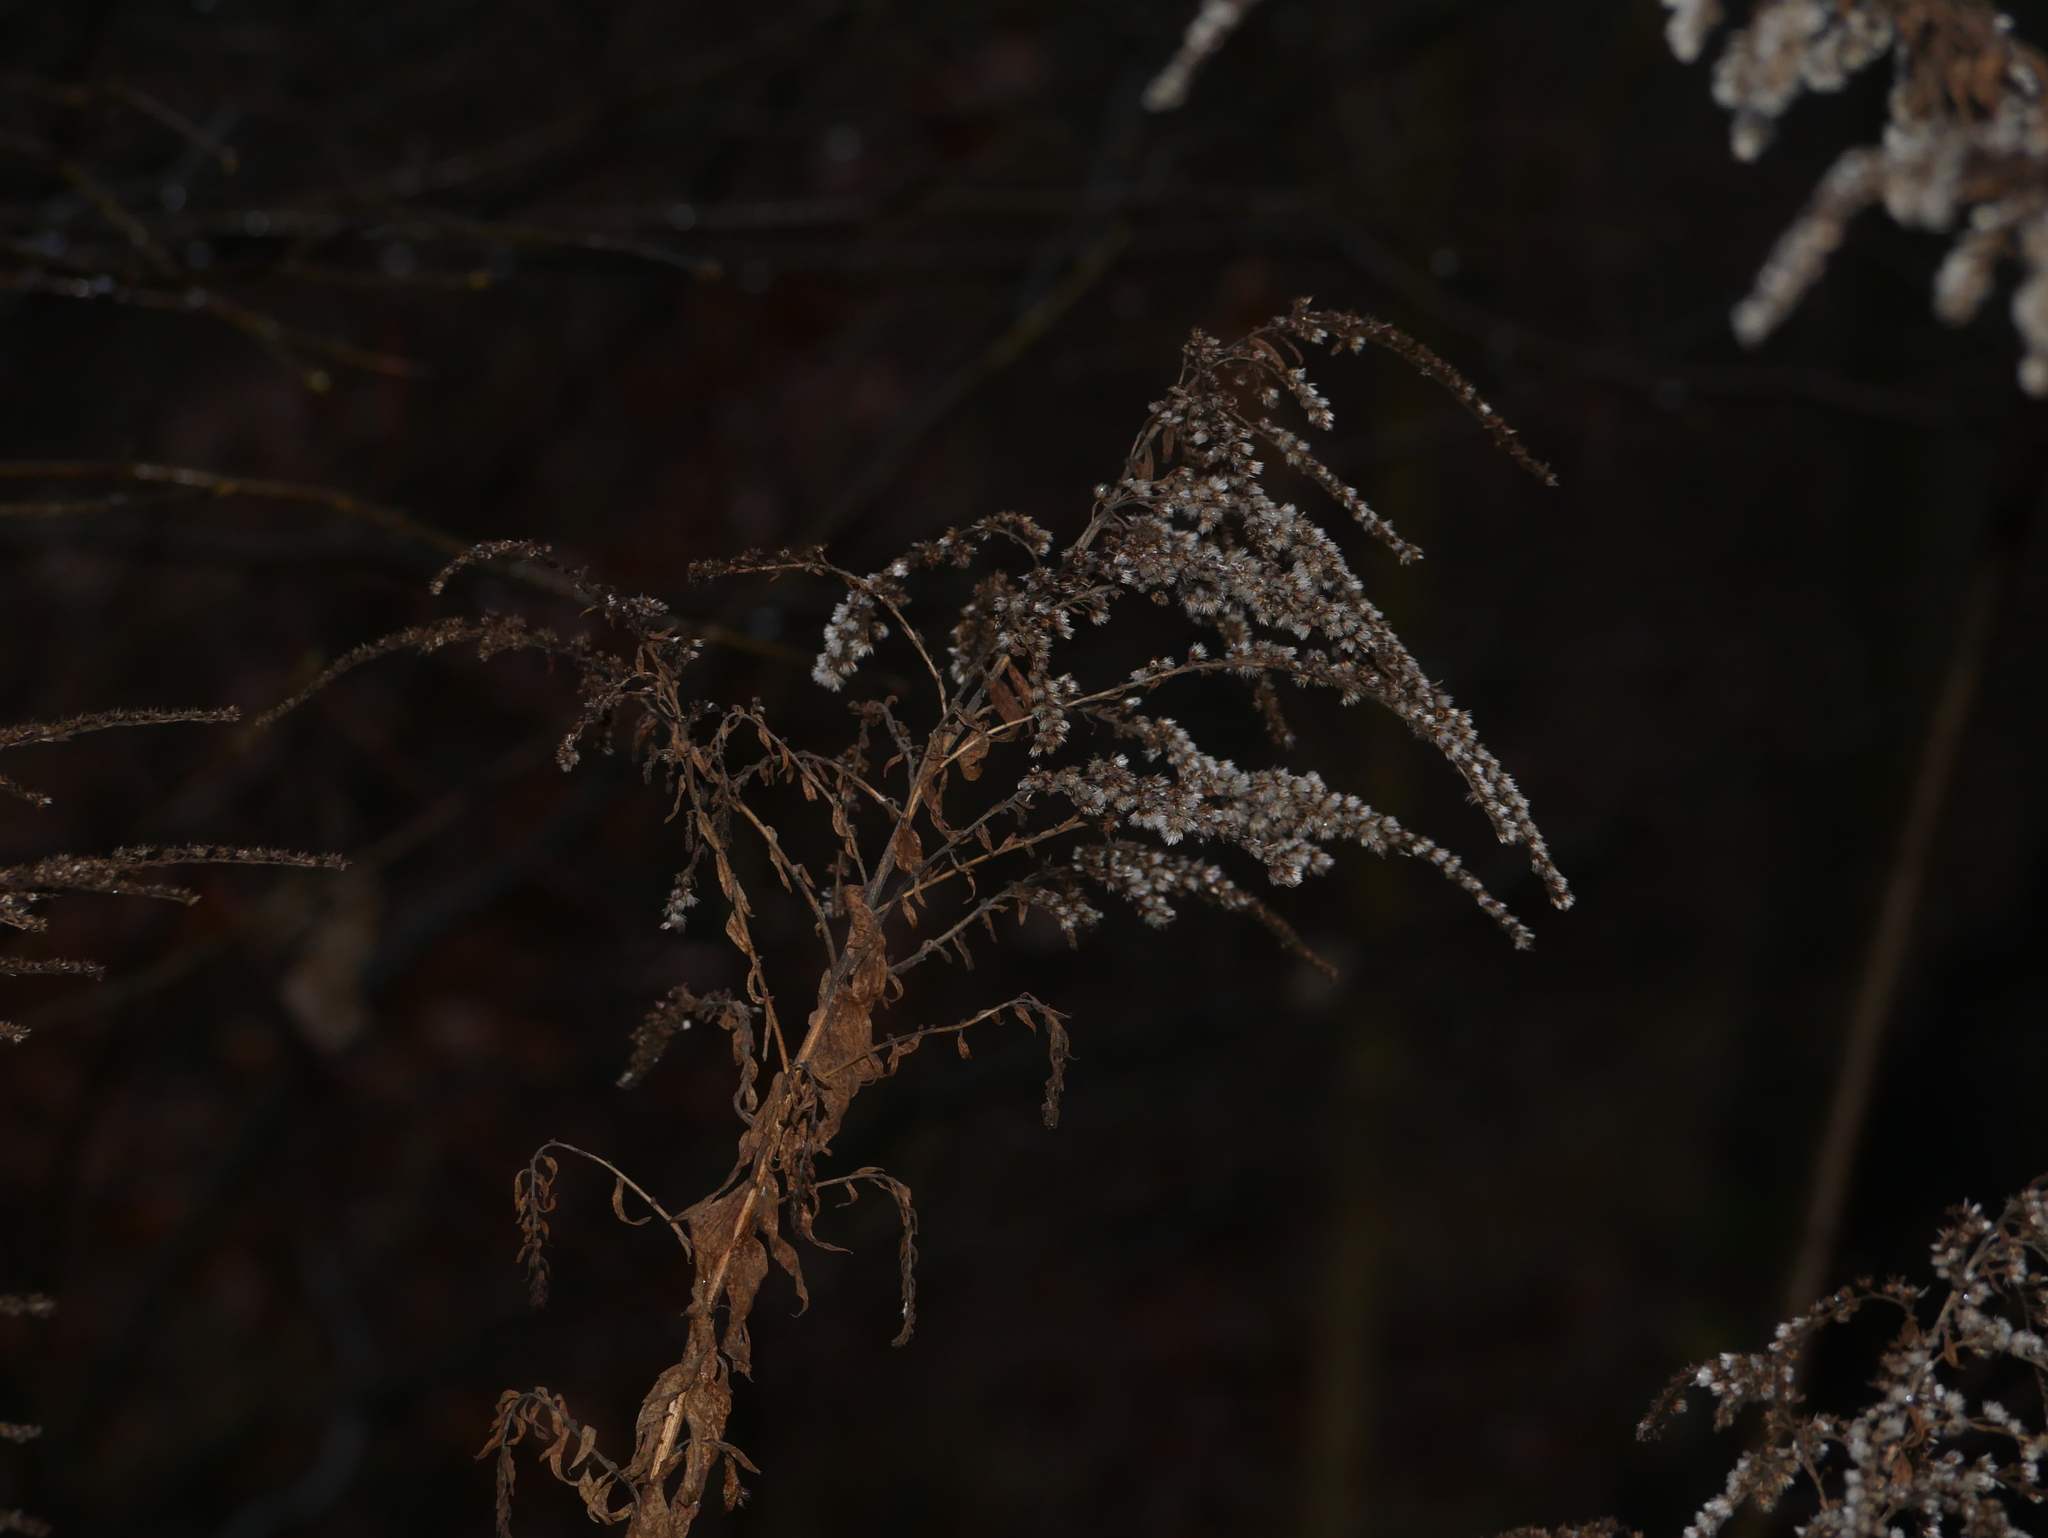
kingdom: Plantae
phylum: Tracheophyta
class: Magnoliopsida
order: Asterales
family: Asteraceae
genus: Solidago
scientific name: Solidago canadensis
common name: Canada goldenrod
